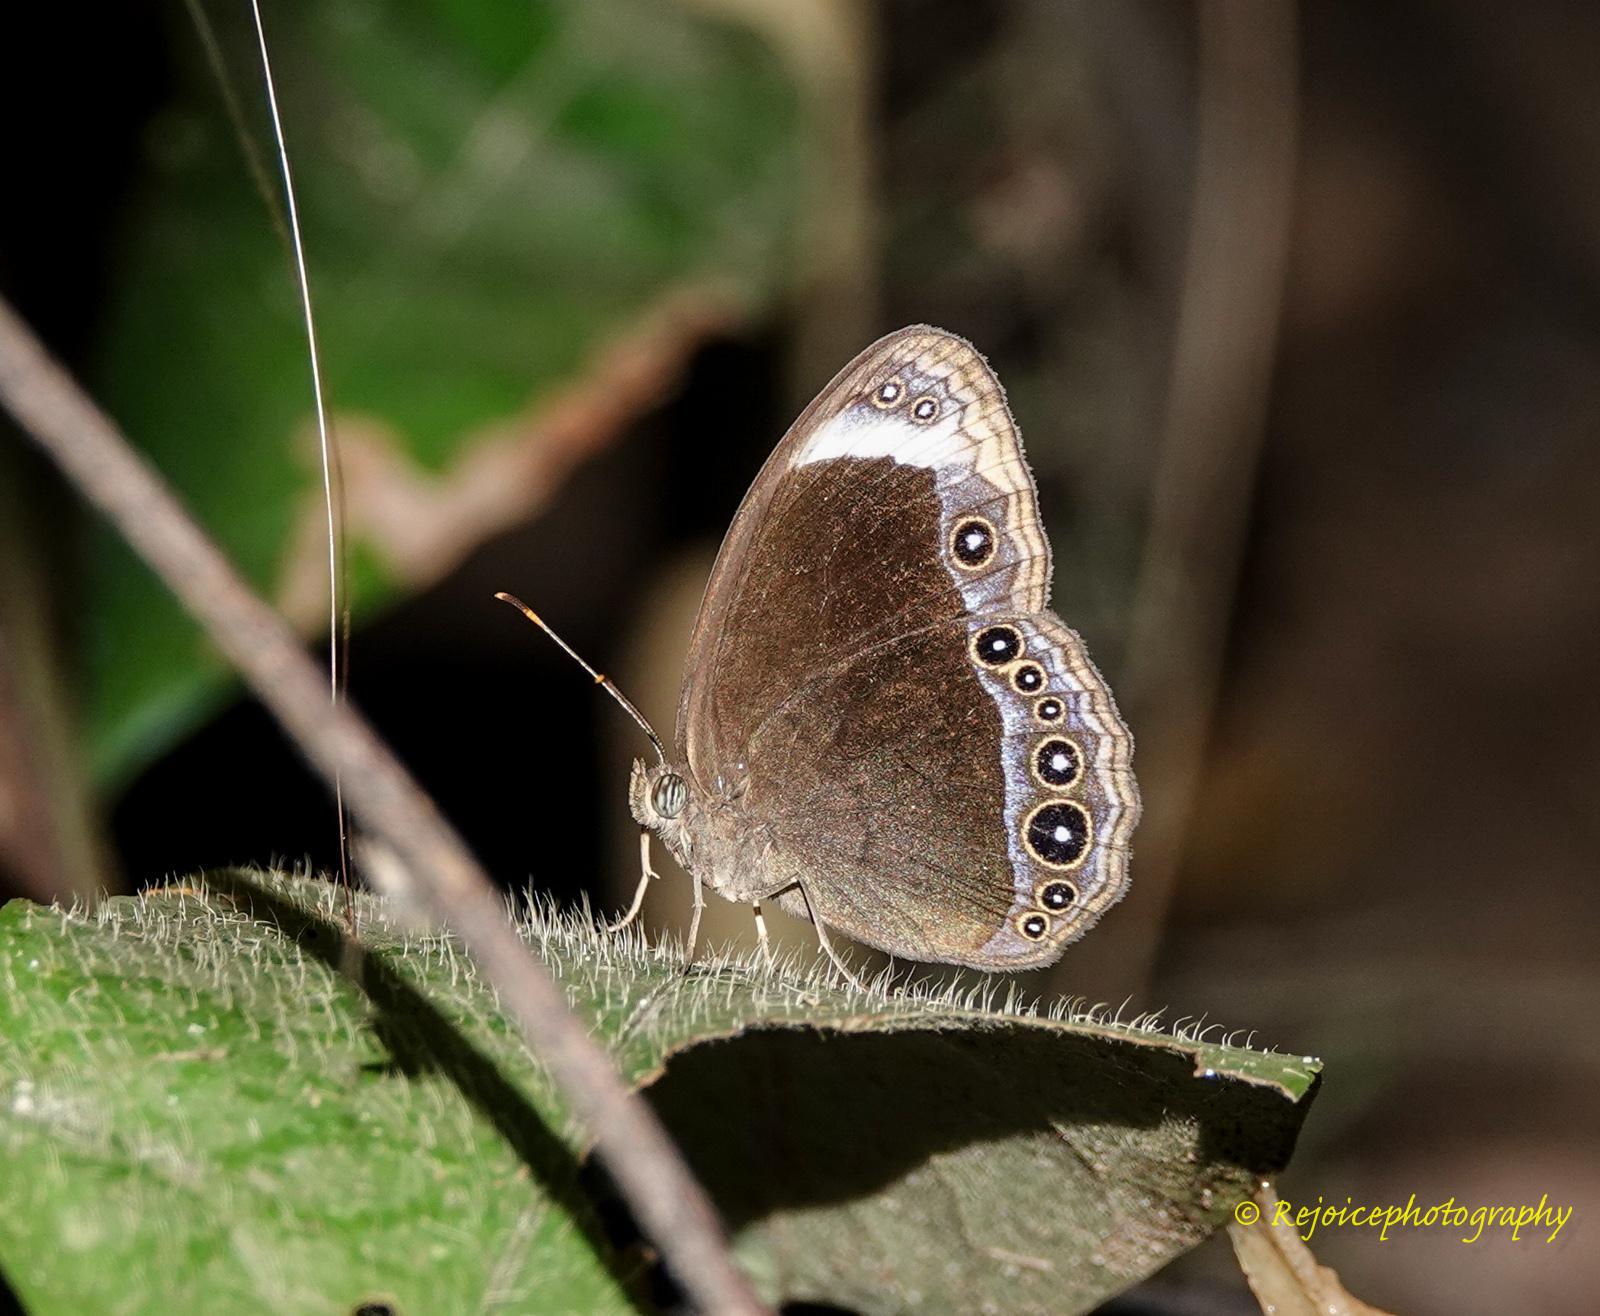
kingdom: Animalia
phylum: Arthropoda
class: Insecta
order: Lepidoptera
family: Nymphalidae
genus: Mycalesis
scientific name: Mycalesis anaxias
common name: White-bar bushbrown
